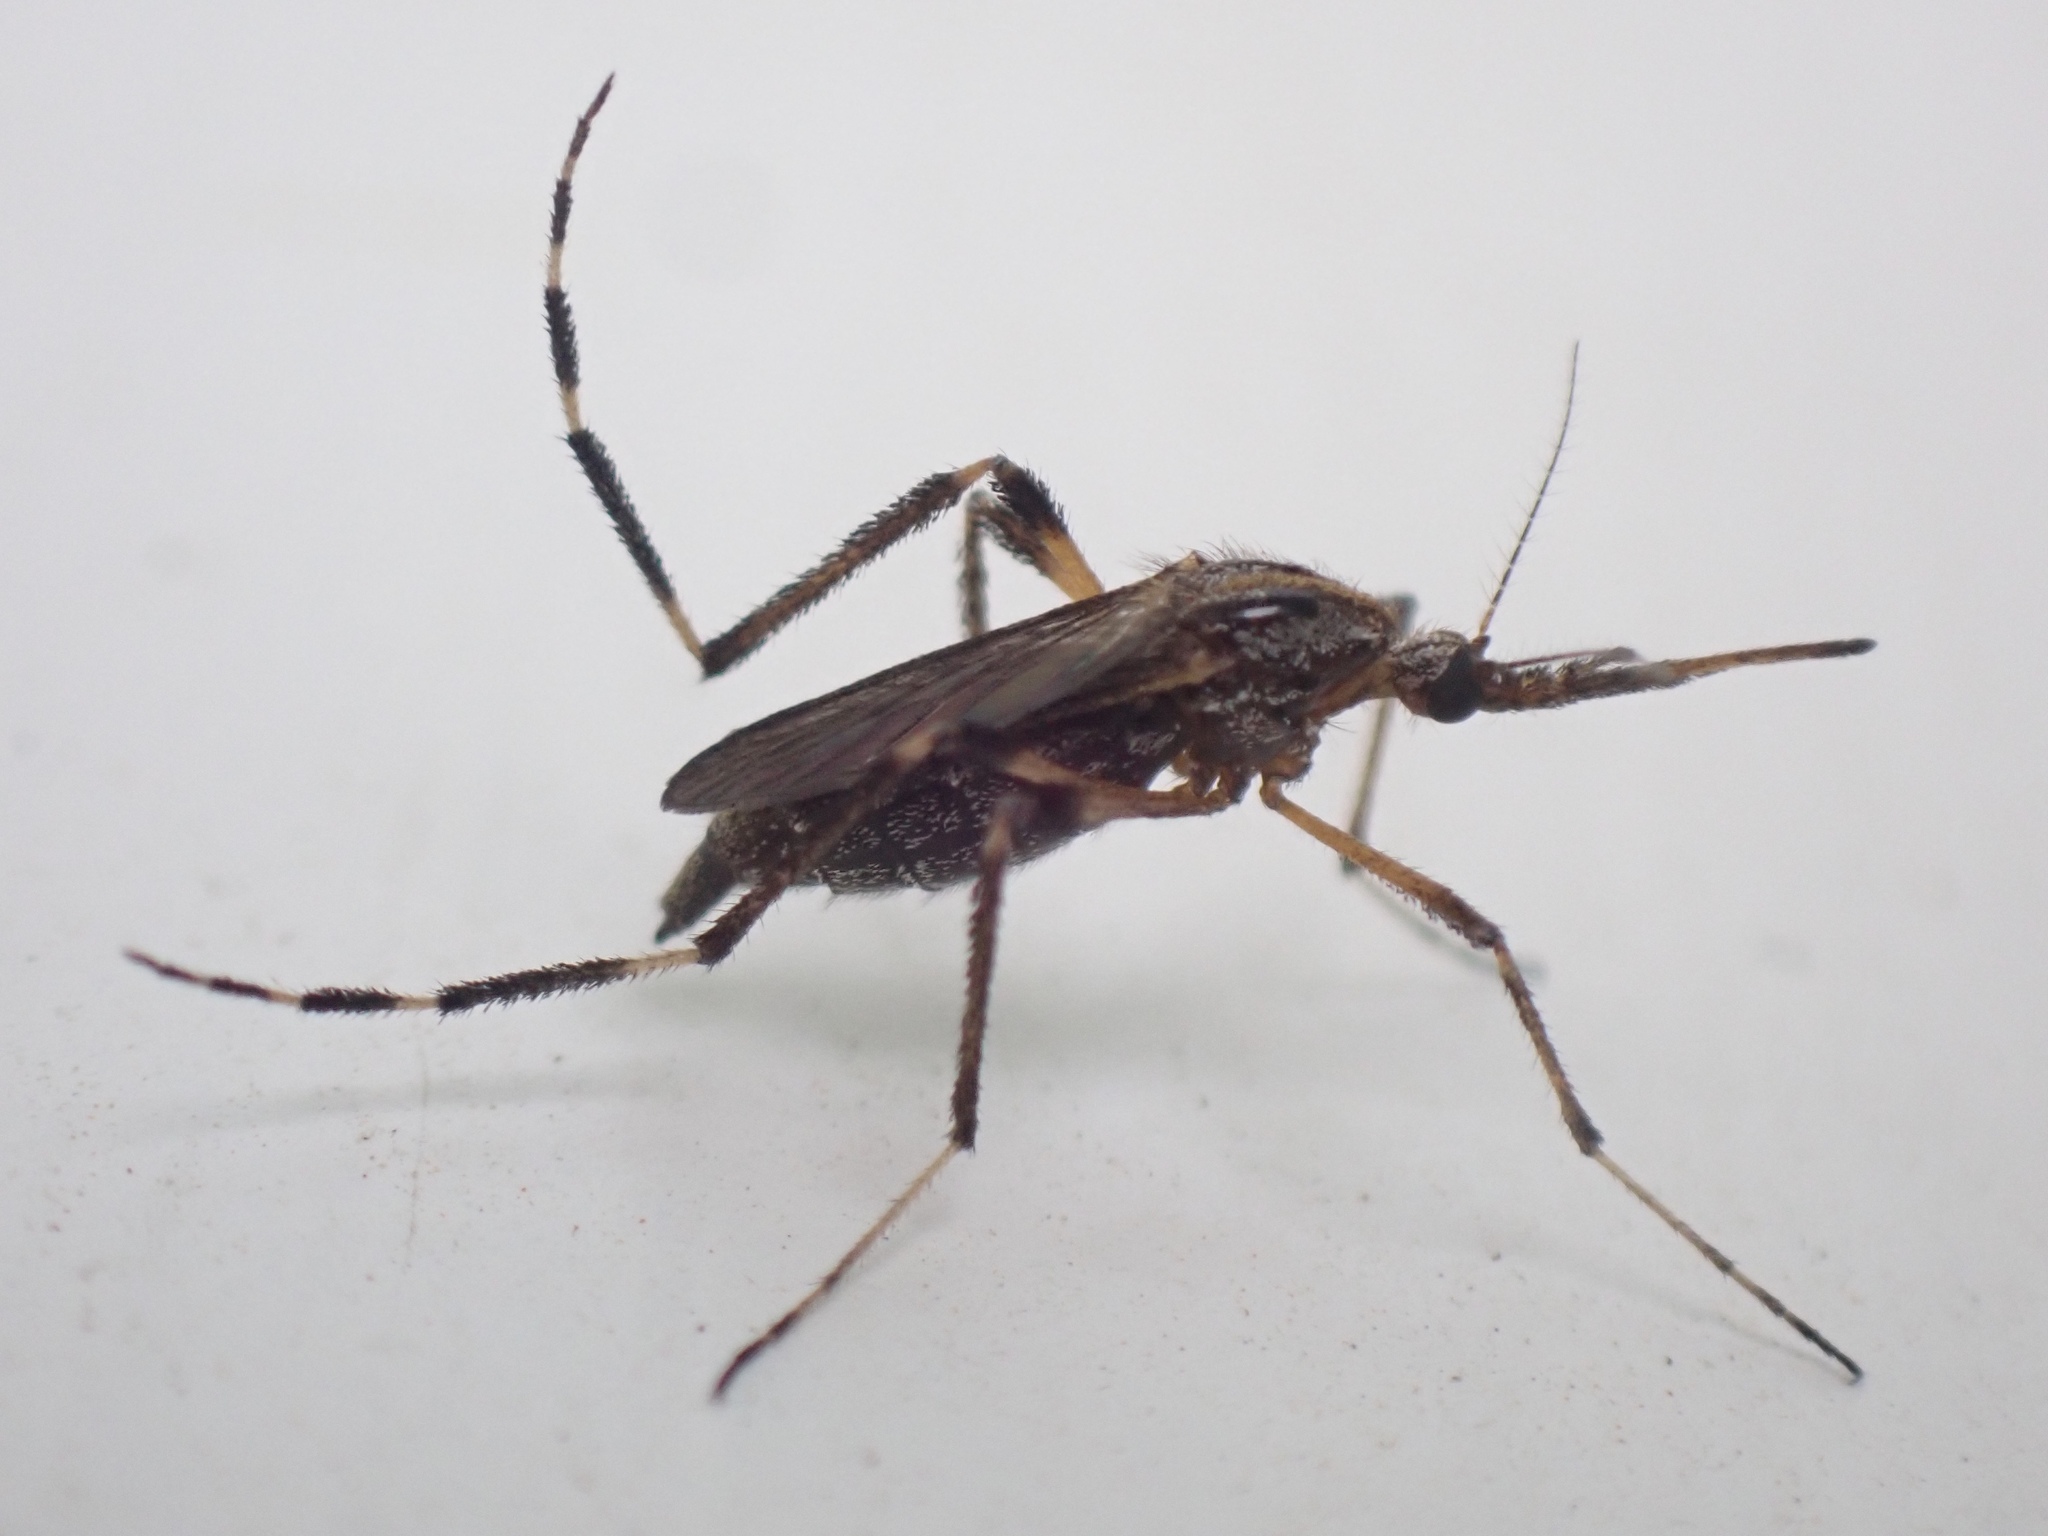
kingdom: Animalia
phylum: Arthropoda
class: Insecta
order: Diptera
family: Culicidae
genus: Psorophora
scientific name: Psorophora ciliata
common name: Gallinipper
